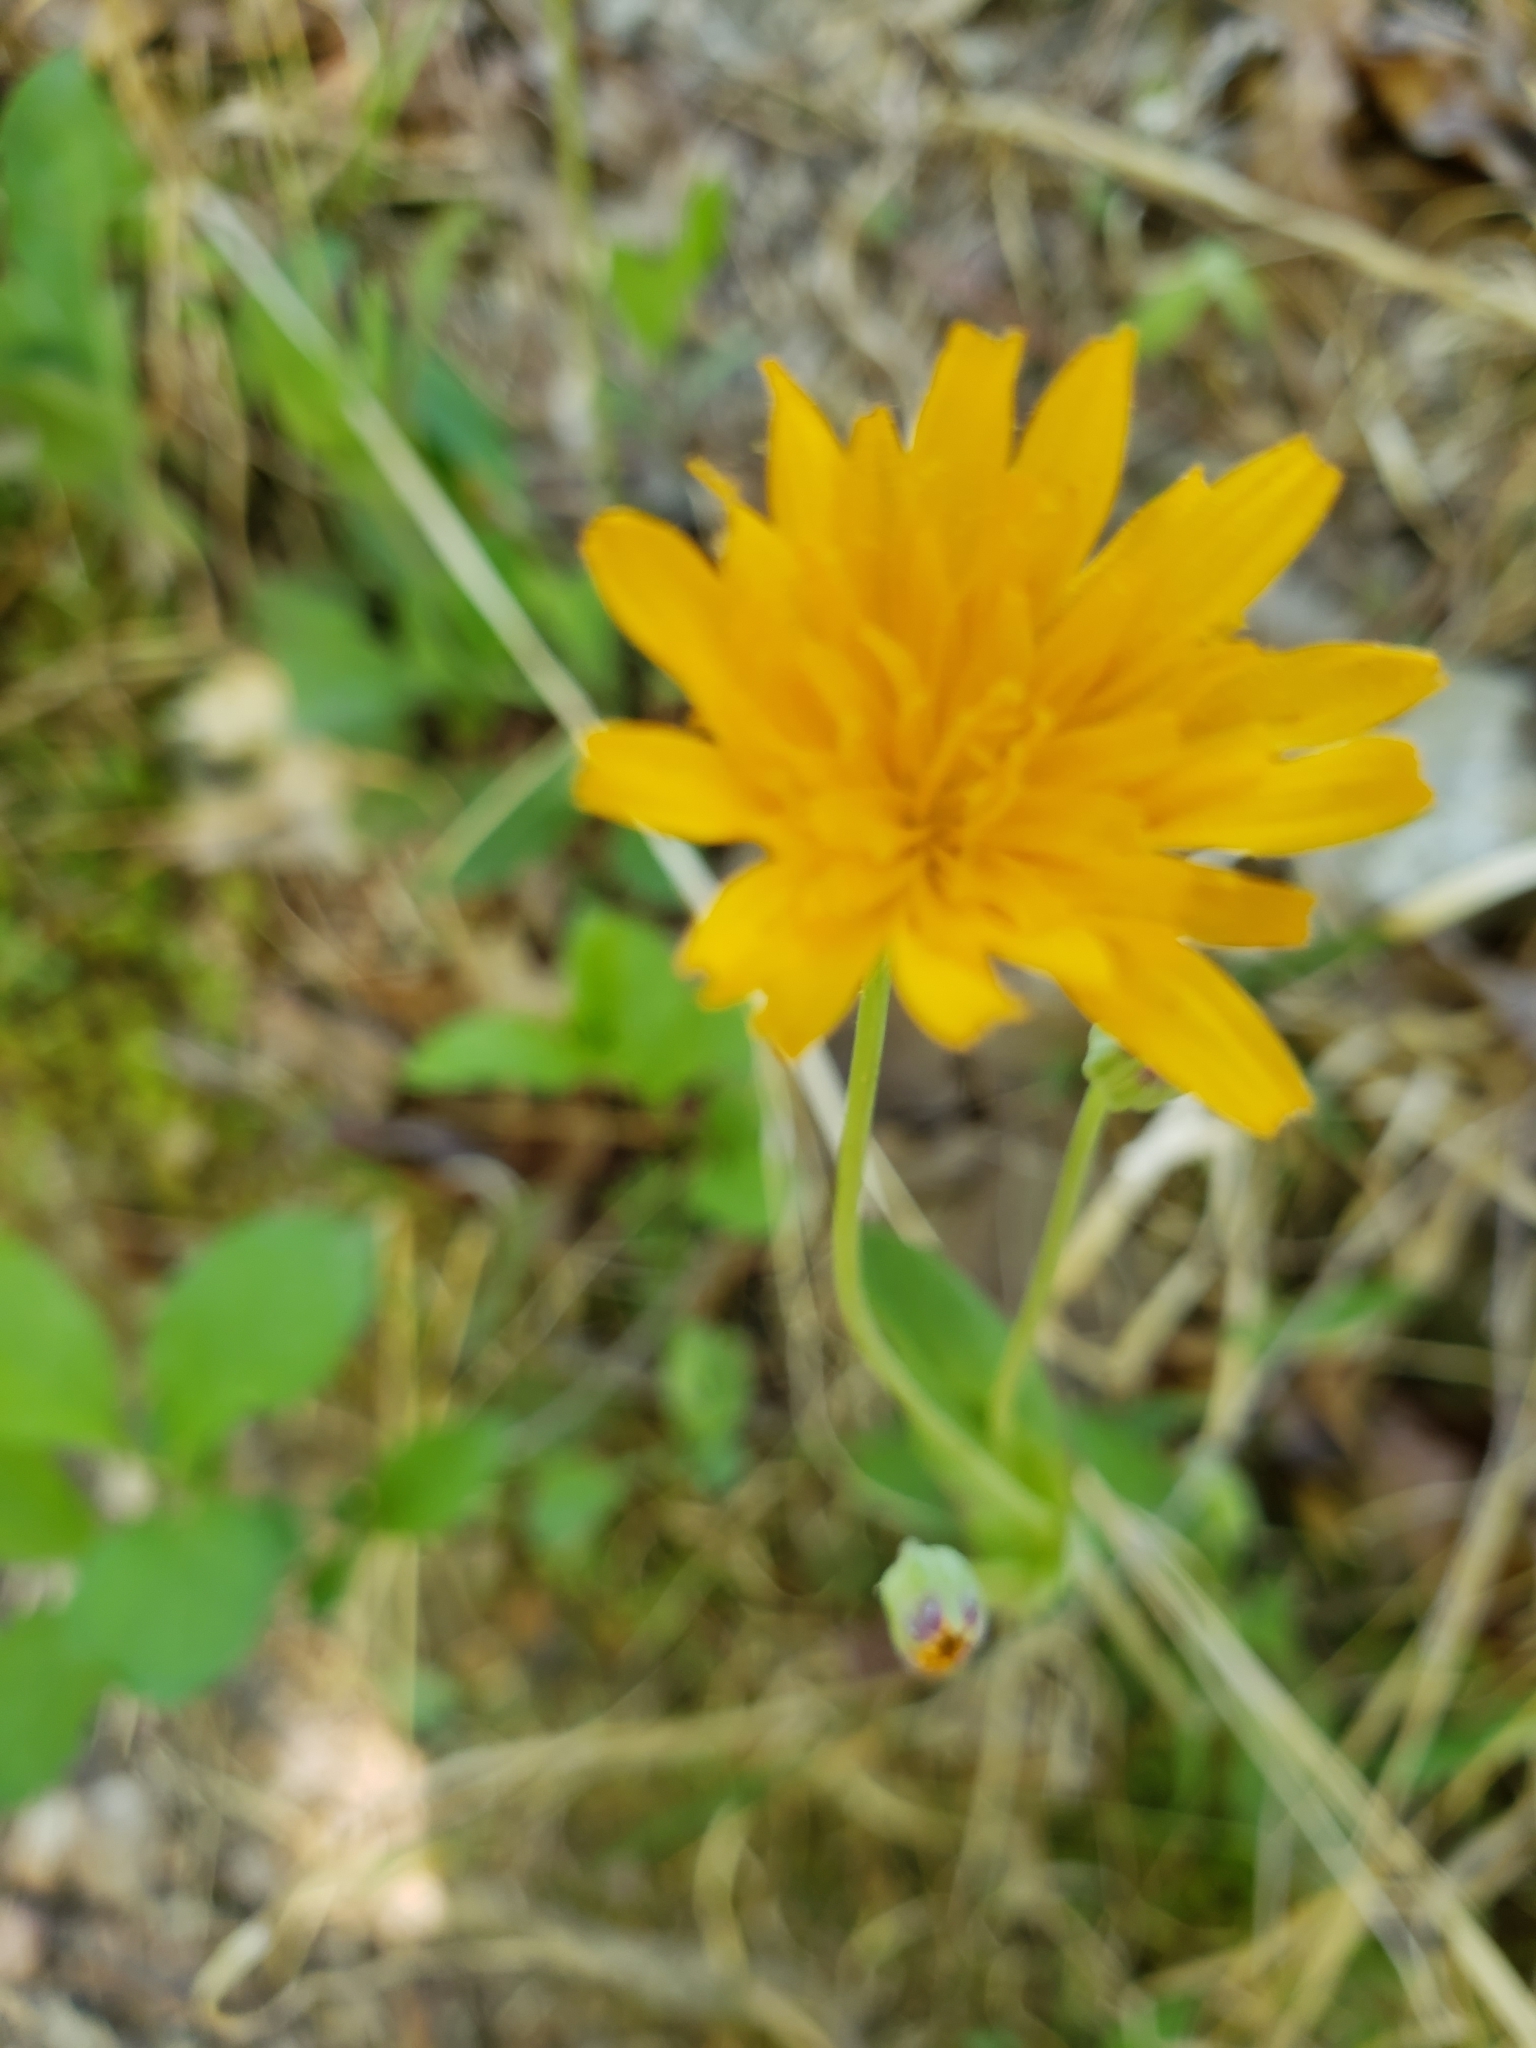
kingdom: Plantae
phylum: Tracheophyta
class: Magnoliopsida
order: Asterales
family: Asteraceae
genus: Krigia
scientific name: Krigia biflora
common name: Orange dwarf-dandelion
